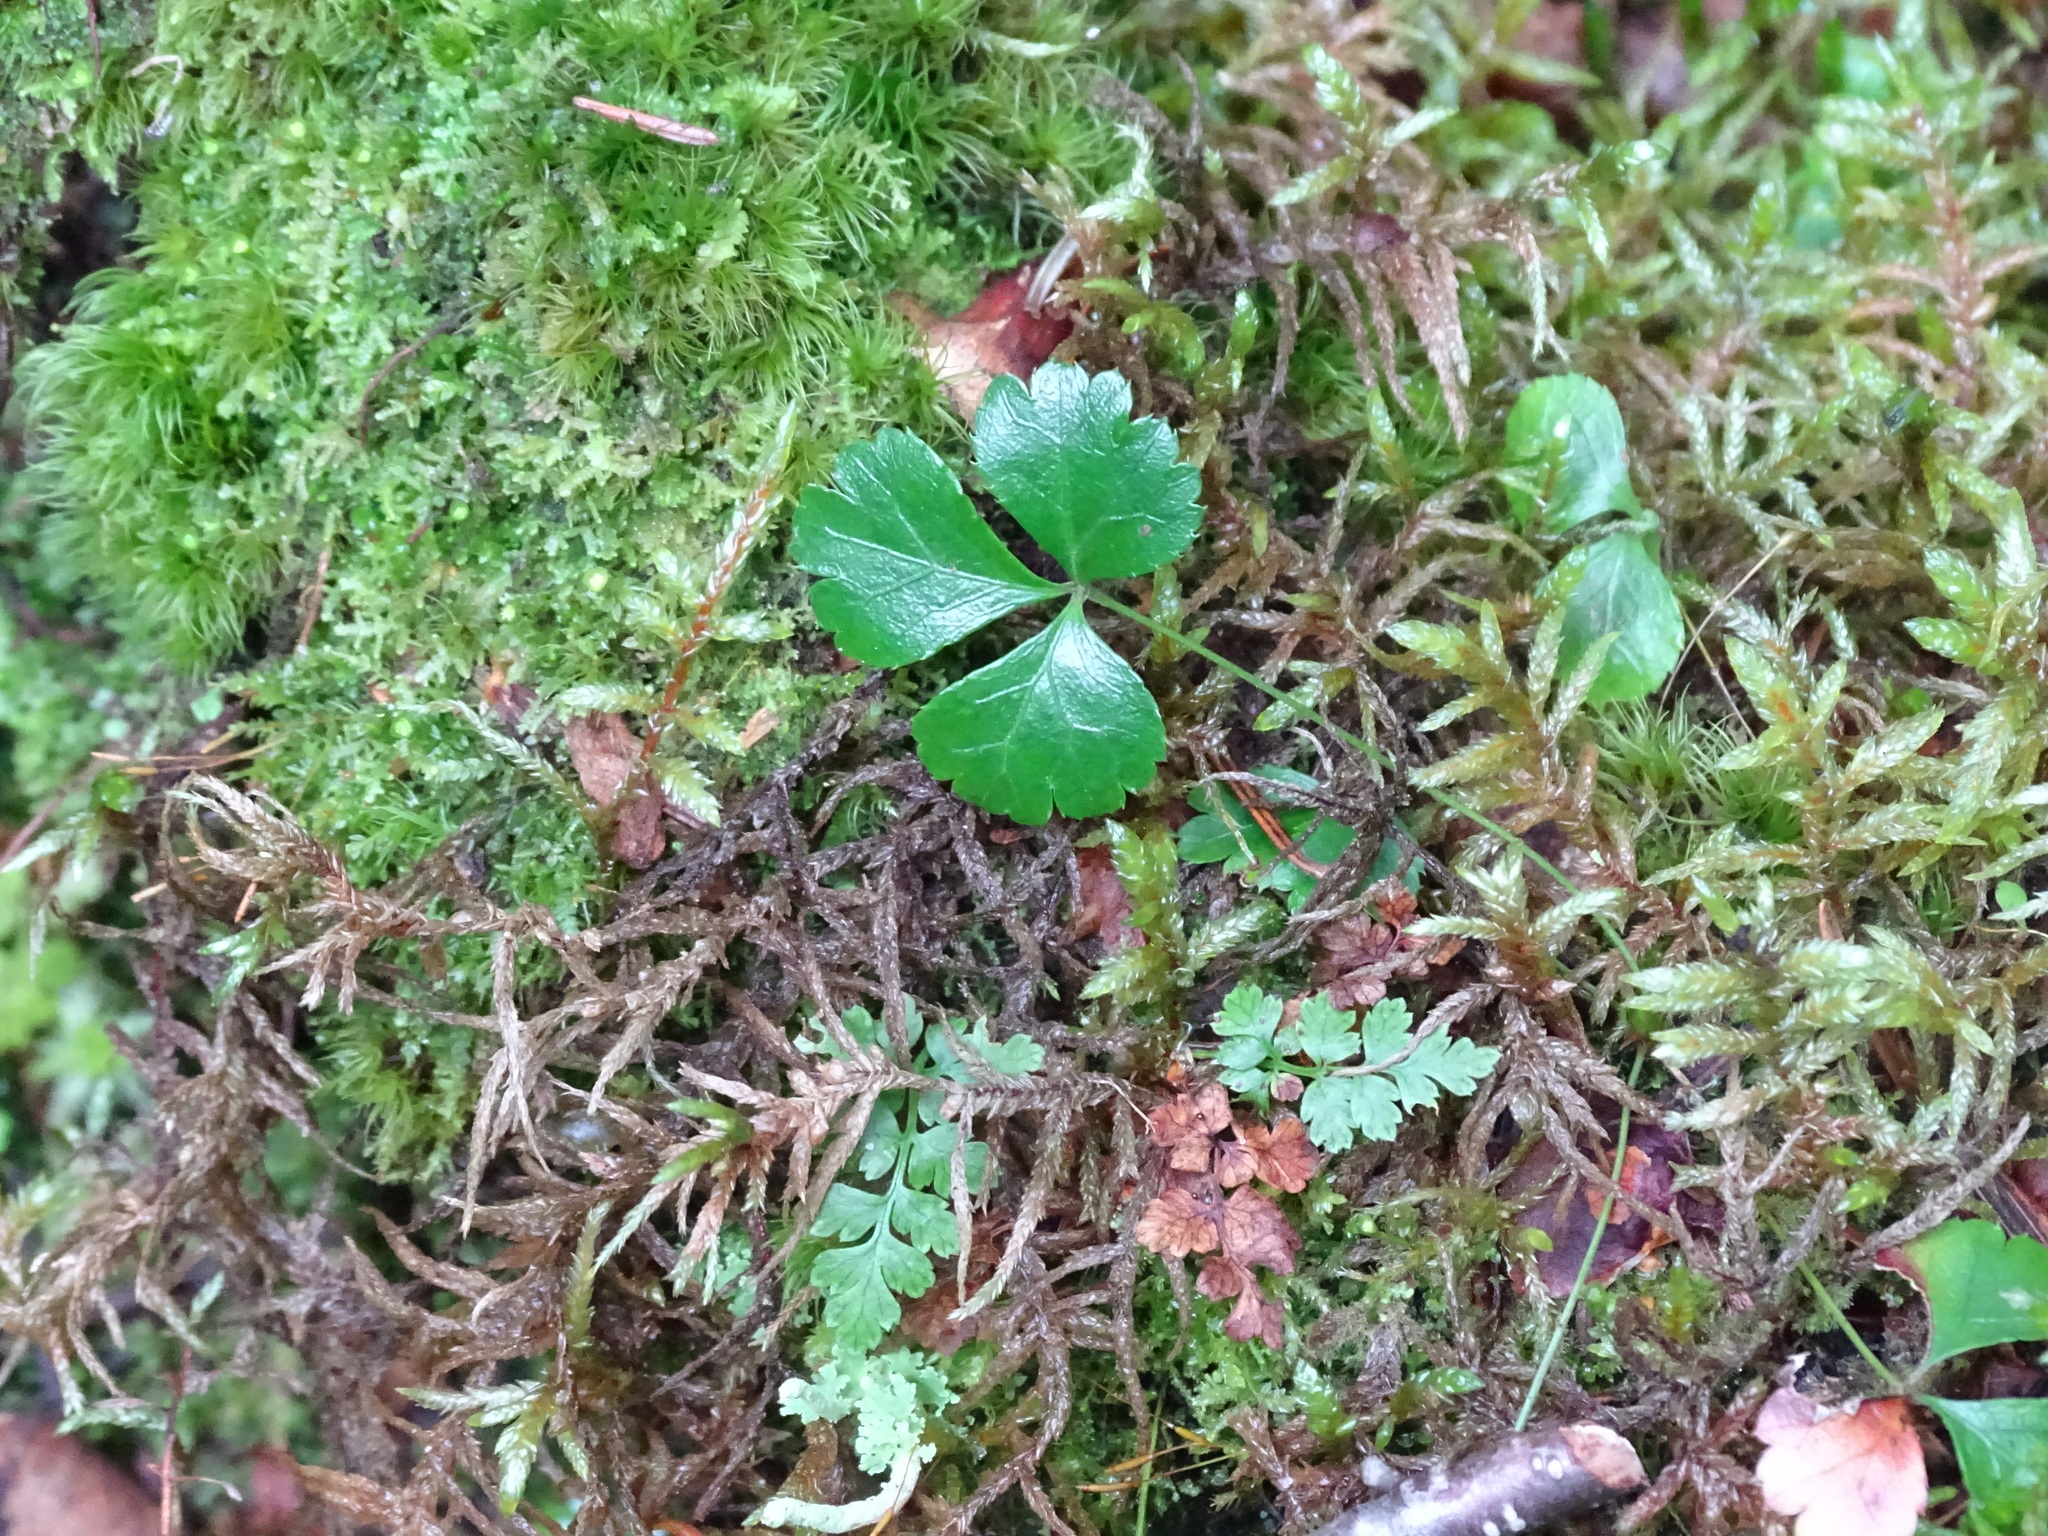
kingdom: Plantae
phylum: Tracheophyta
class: Magnoliopsida
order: Ranunculales
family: Ranunculaceae
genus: Coptis
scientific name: Coptis trifolia
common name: Canker-root
